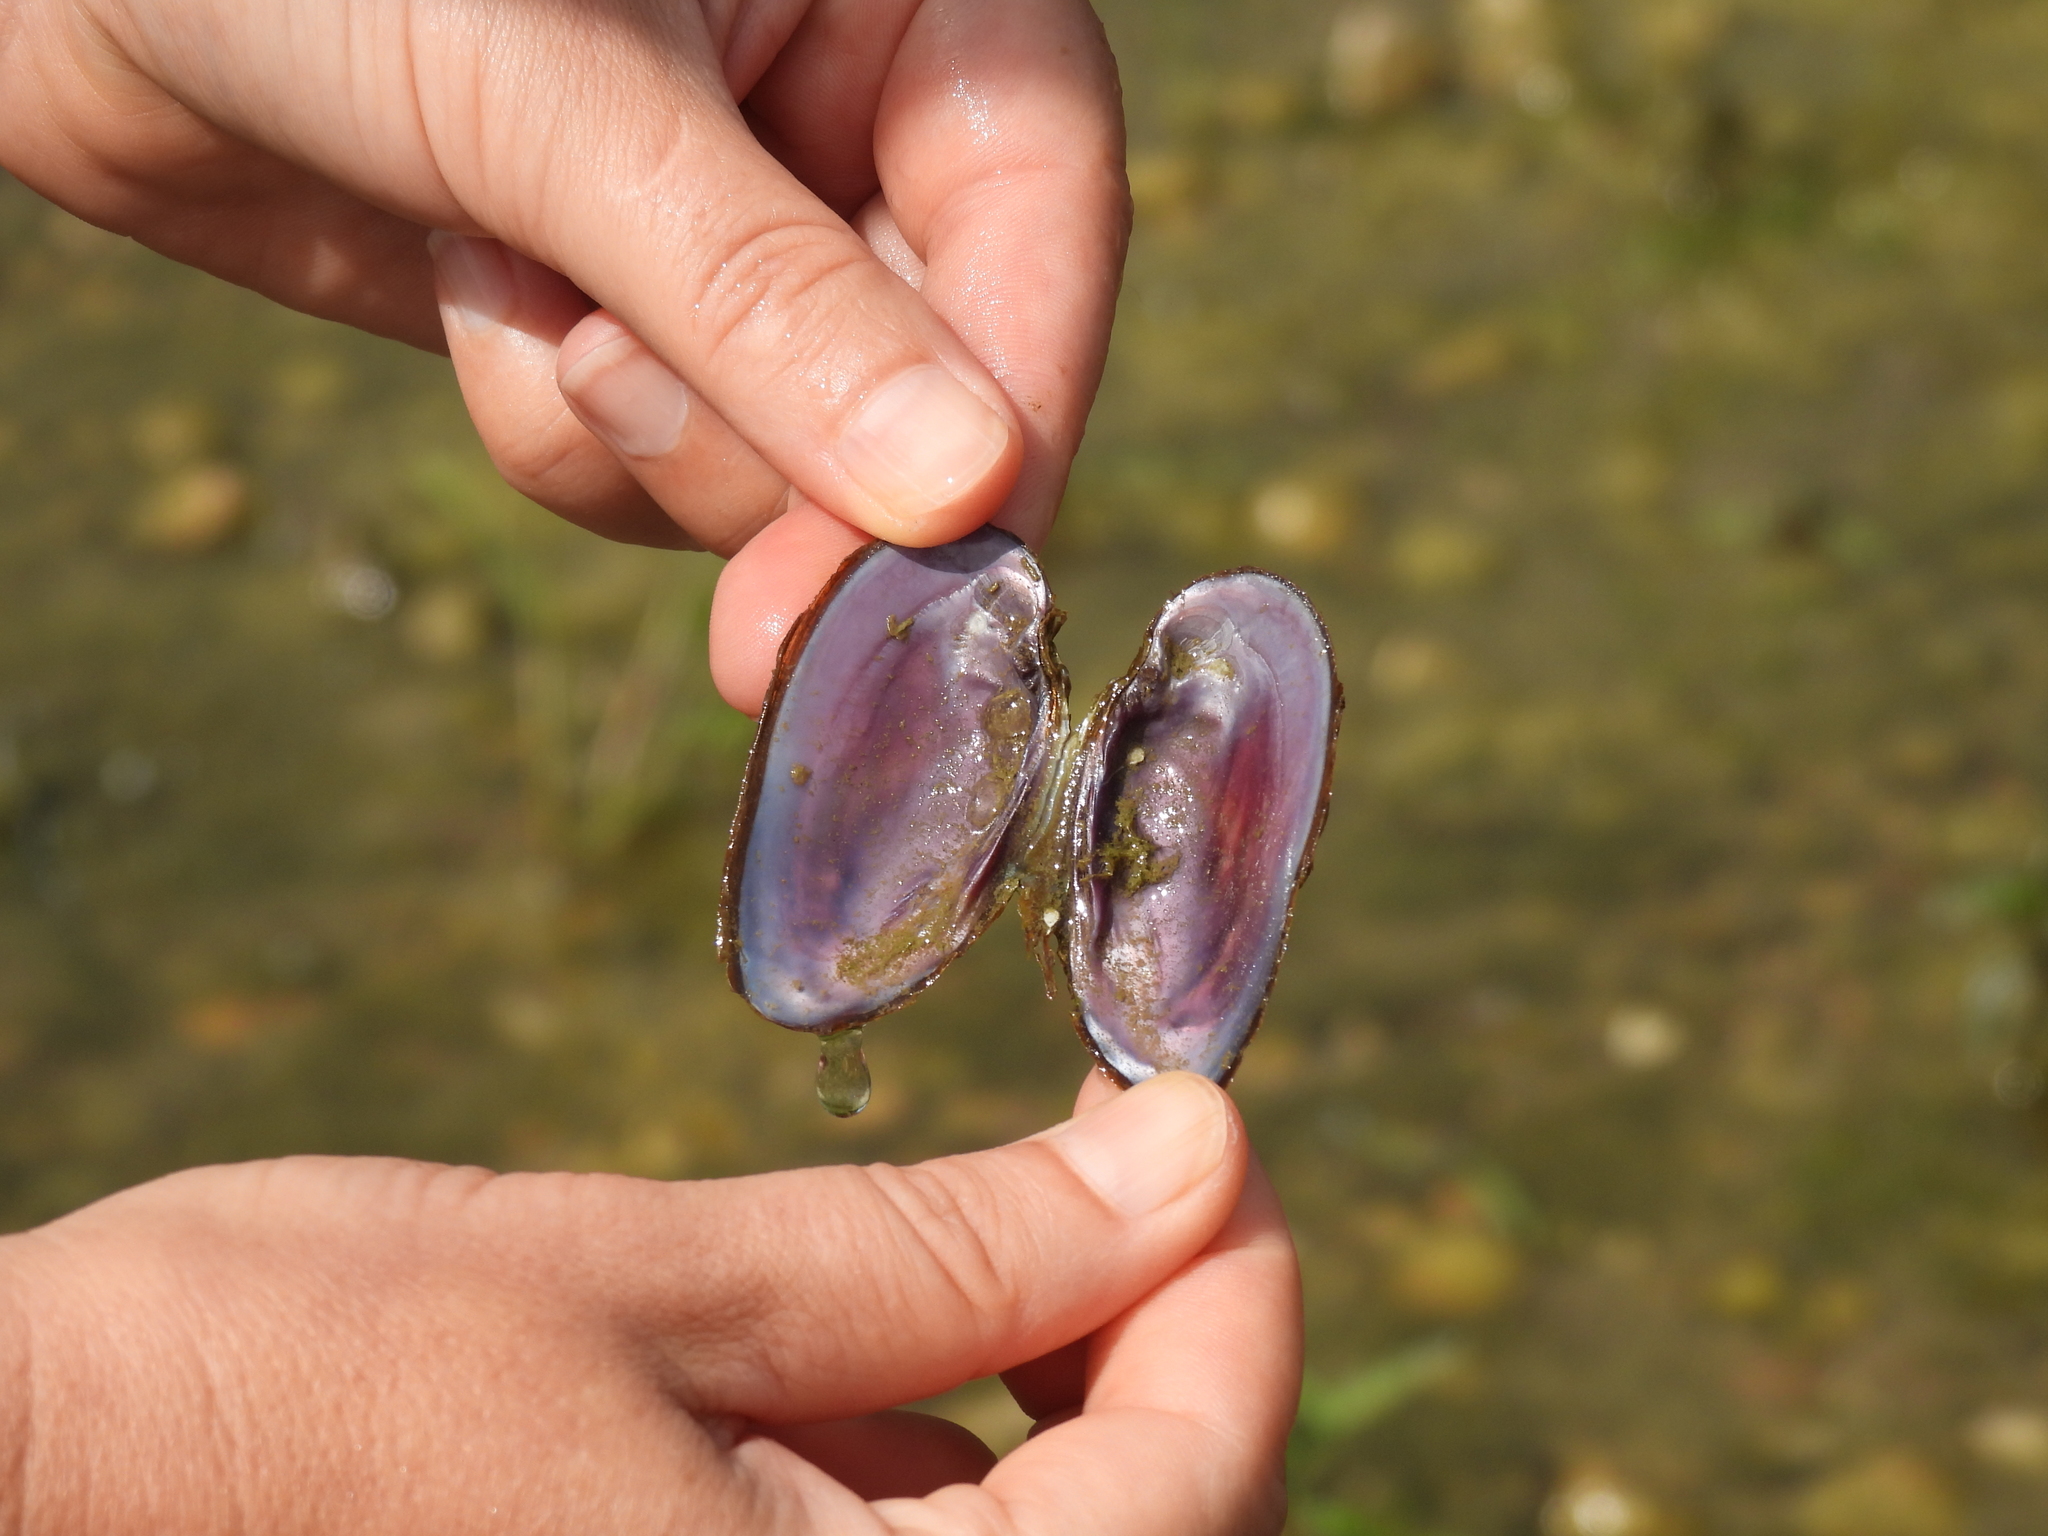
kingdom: Animalia
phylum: Mollusca
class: Bivalvia
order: Unionida
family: Unionidae
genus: Eurynia
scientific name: Eurynia dilatata
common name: Spike
